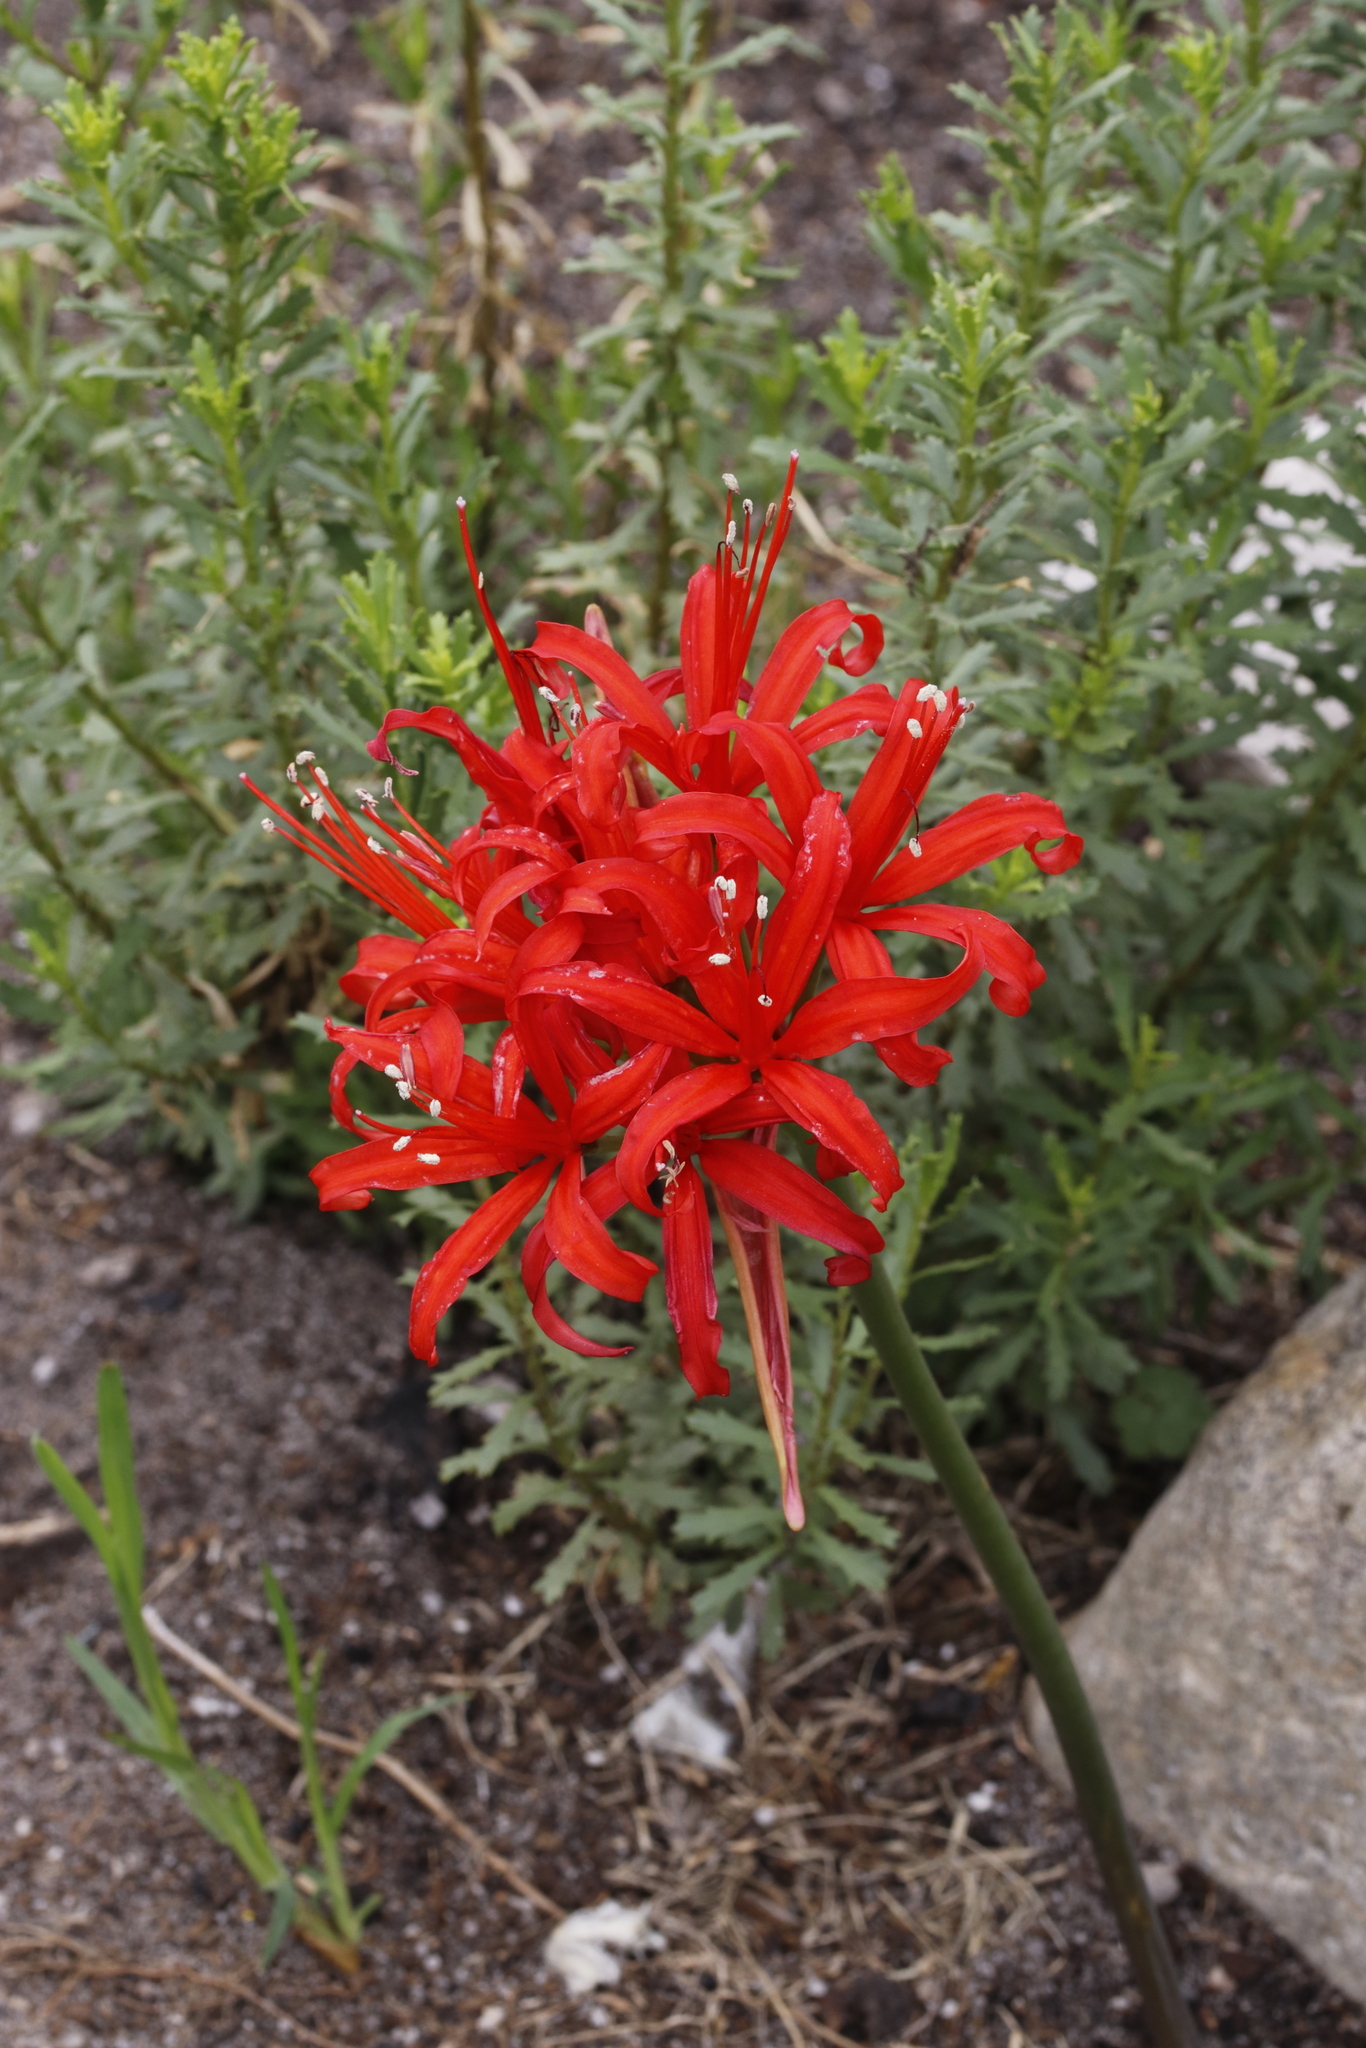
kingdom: Plantae
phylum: Tracheophyta
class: Liliopsida
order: Asparagales
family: Amaryllidaceae
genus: Nerine
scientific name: Nerine sarniensis
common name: Guernsey-lily
